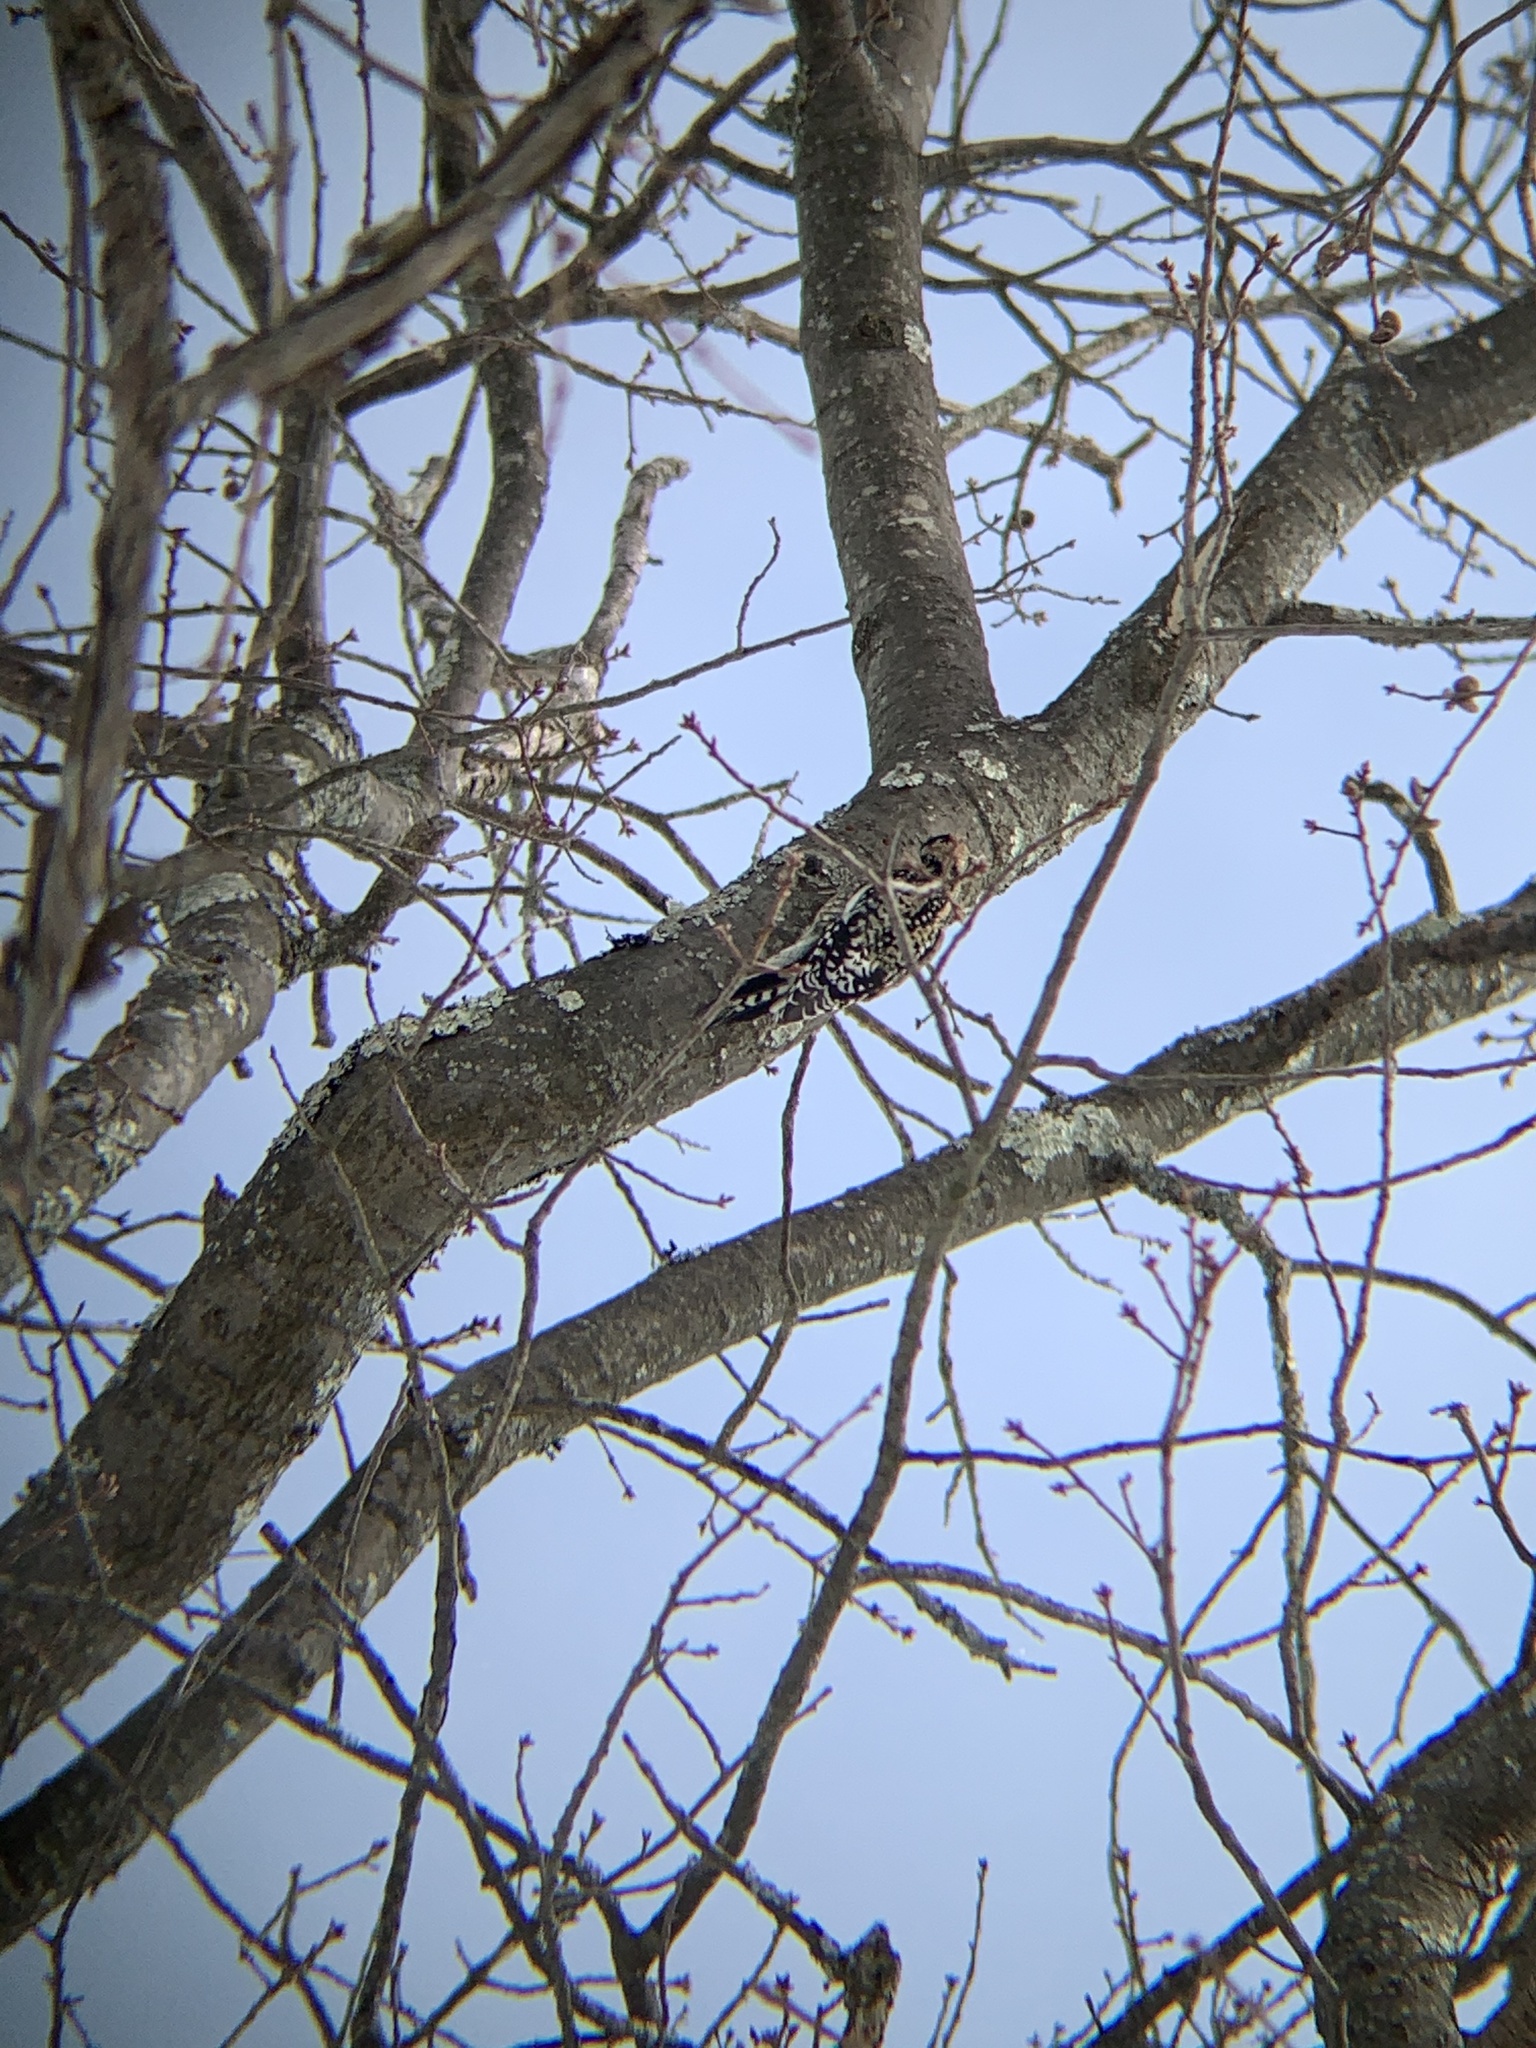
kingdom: Animalia
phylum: Chordata
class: Aves
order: Piciformes
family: Picidae
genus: Sphyrapicus
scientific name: Sphyrapicus varius
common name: Yellow-bellied sapsucker
